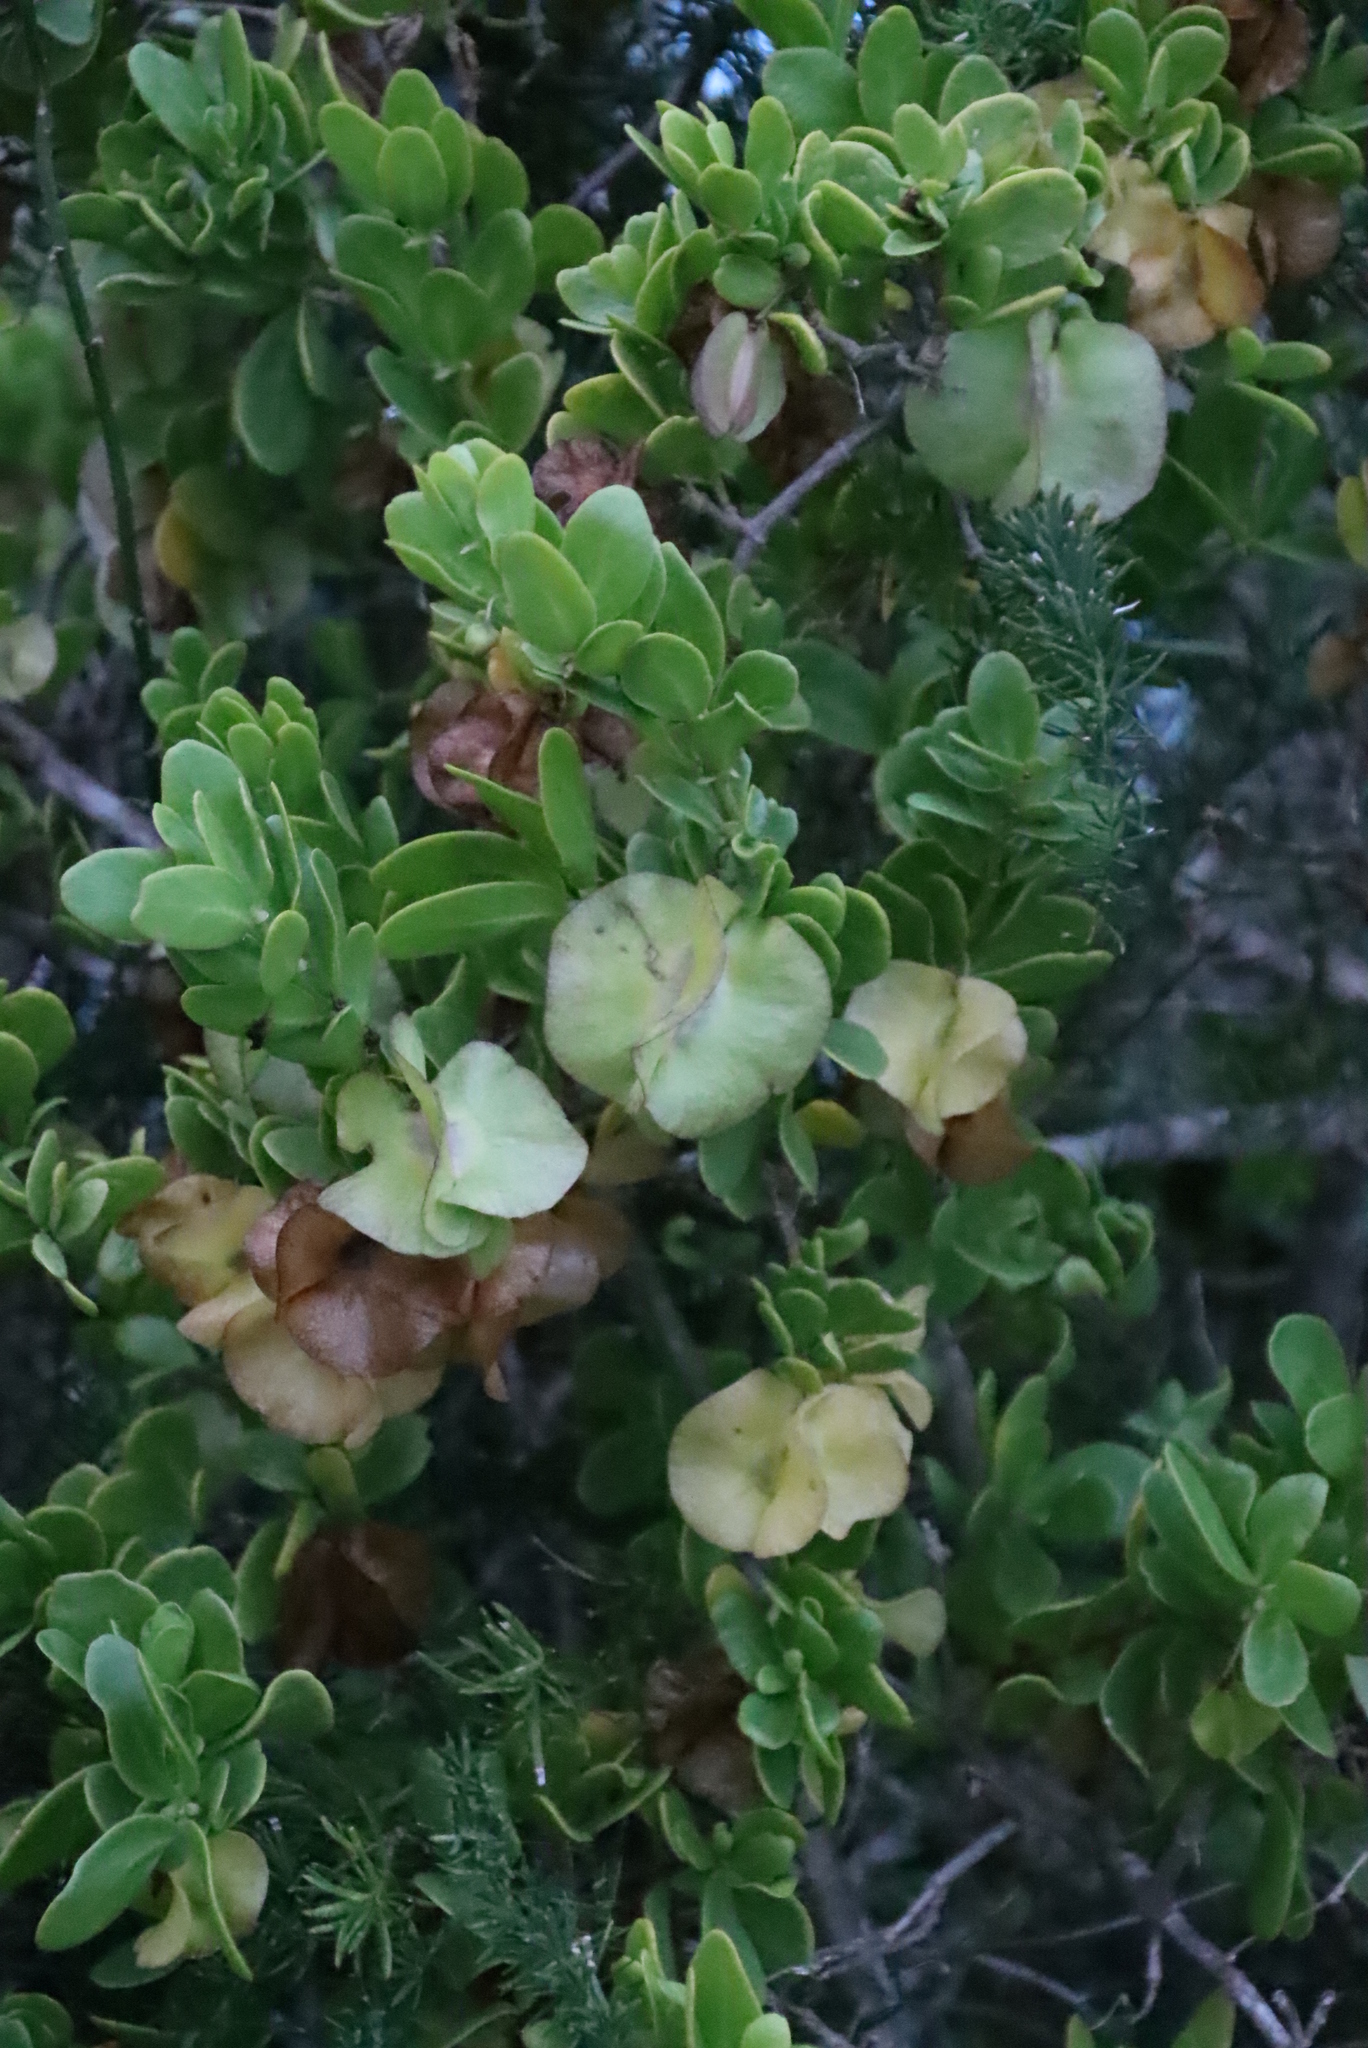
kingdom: Plantae
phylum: Tracheophyta
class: Magnoliopsida
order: Zygophyllales
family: Zygophyllaceae
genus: Roepera
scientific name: Roepera morgsana
